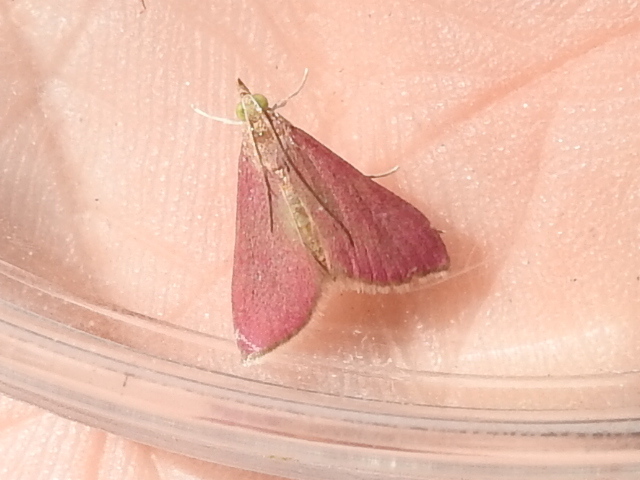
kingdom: Animalia
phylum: Arthropoda
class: Insecta
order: Lepidoptera
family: Crambidae
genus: Pyrausta
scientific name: Pyrausta inornatalis
